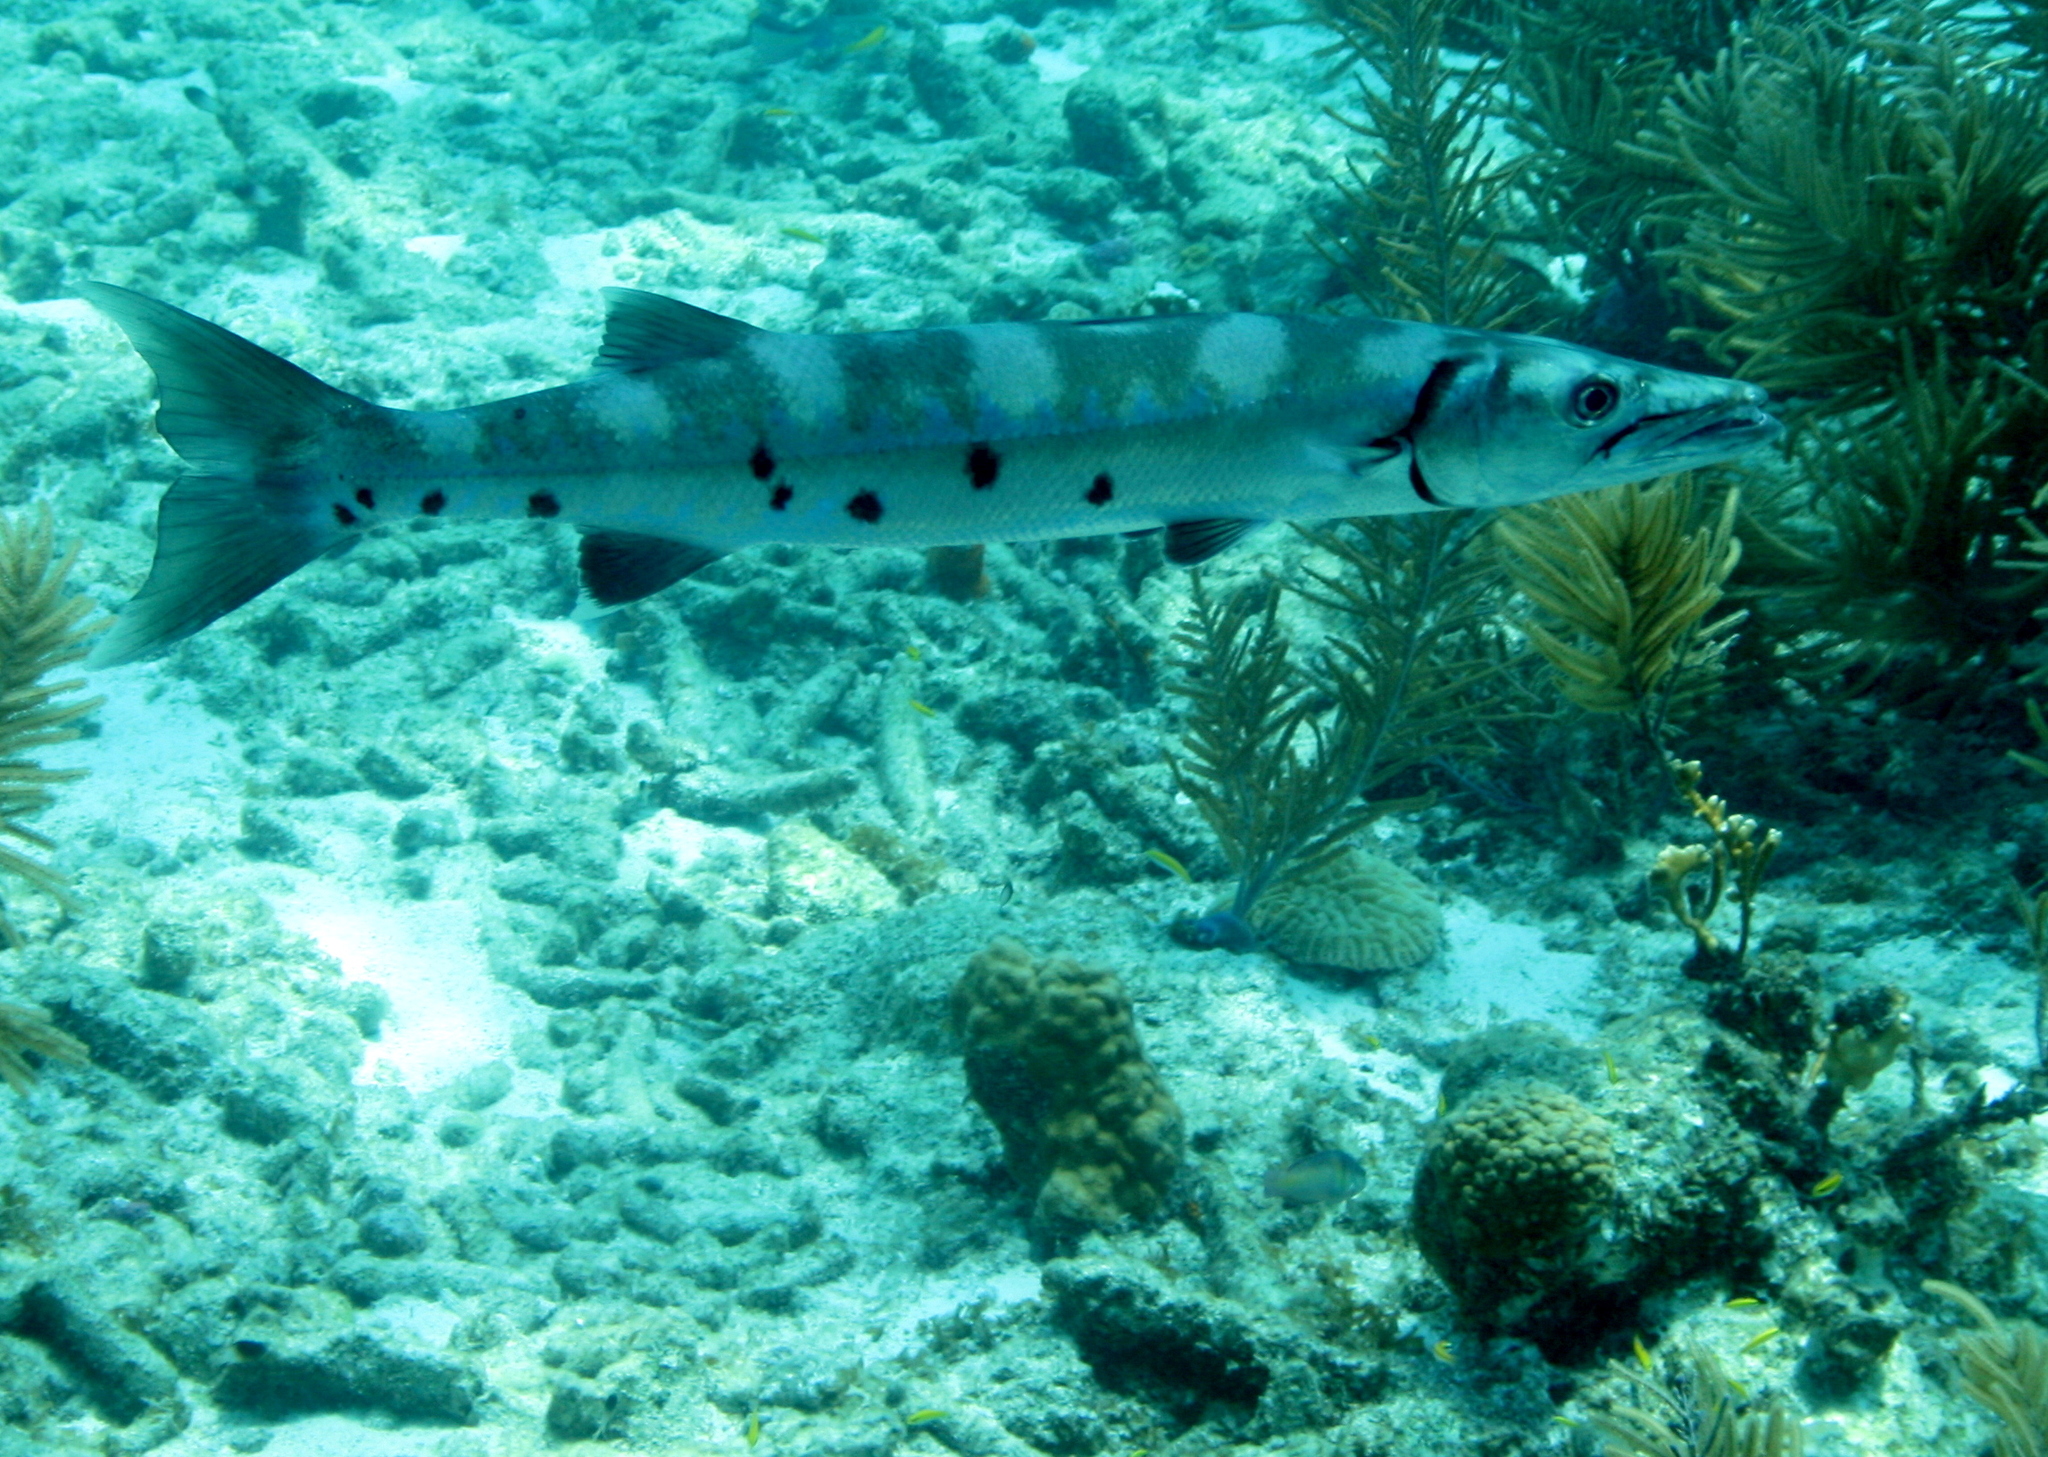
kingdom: Animalia
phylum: Chordata
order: Perciformes
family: Sphyraenidae
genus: Sphyraena
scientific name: Sphyraena barracuda
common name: Great barracuda
